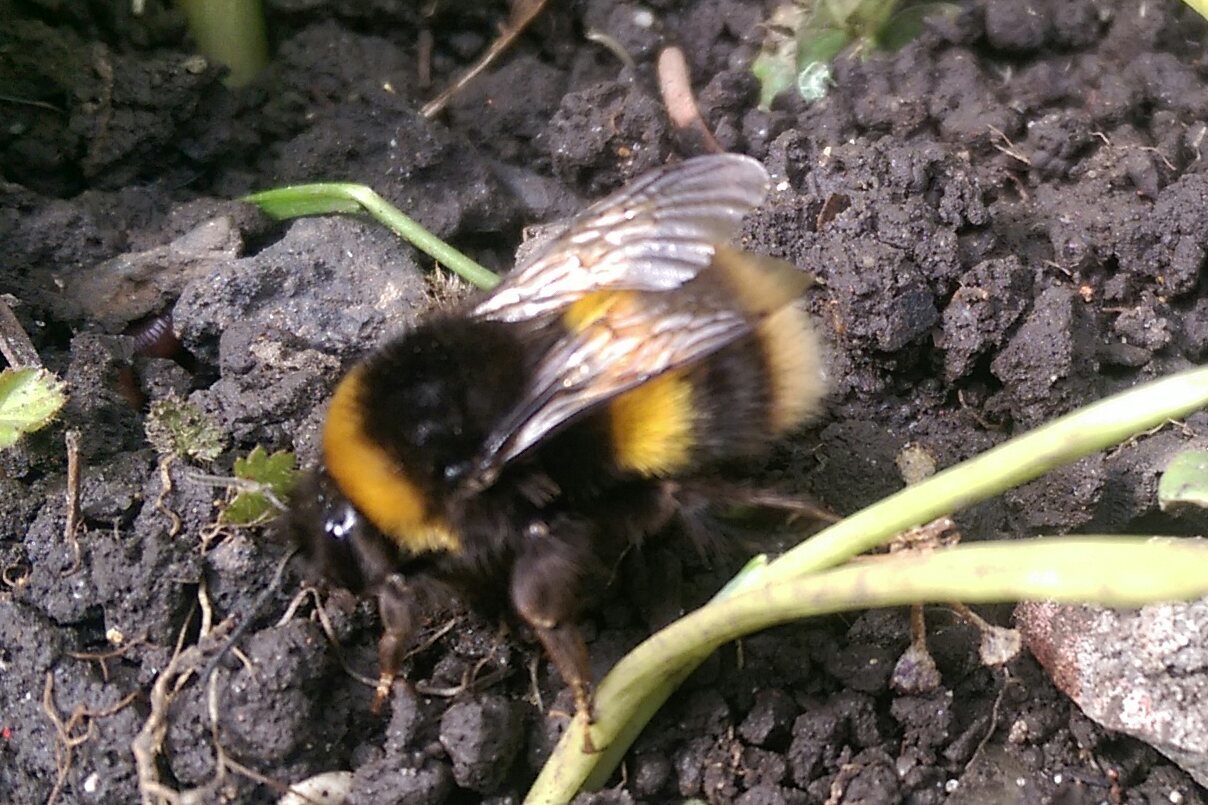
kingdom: Animalia
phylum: Arthropoda
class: Insecta
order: Hymenoptera
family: Apidae
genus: Bombus
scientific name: Bombus terrestris
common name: Buff-tailed bumblebee
